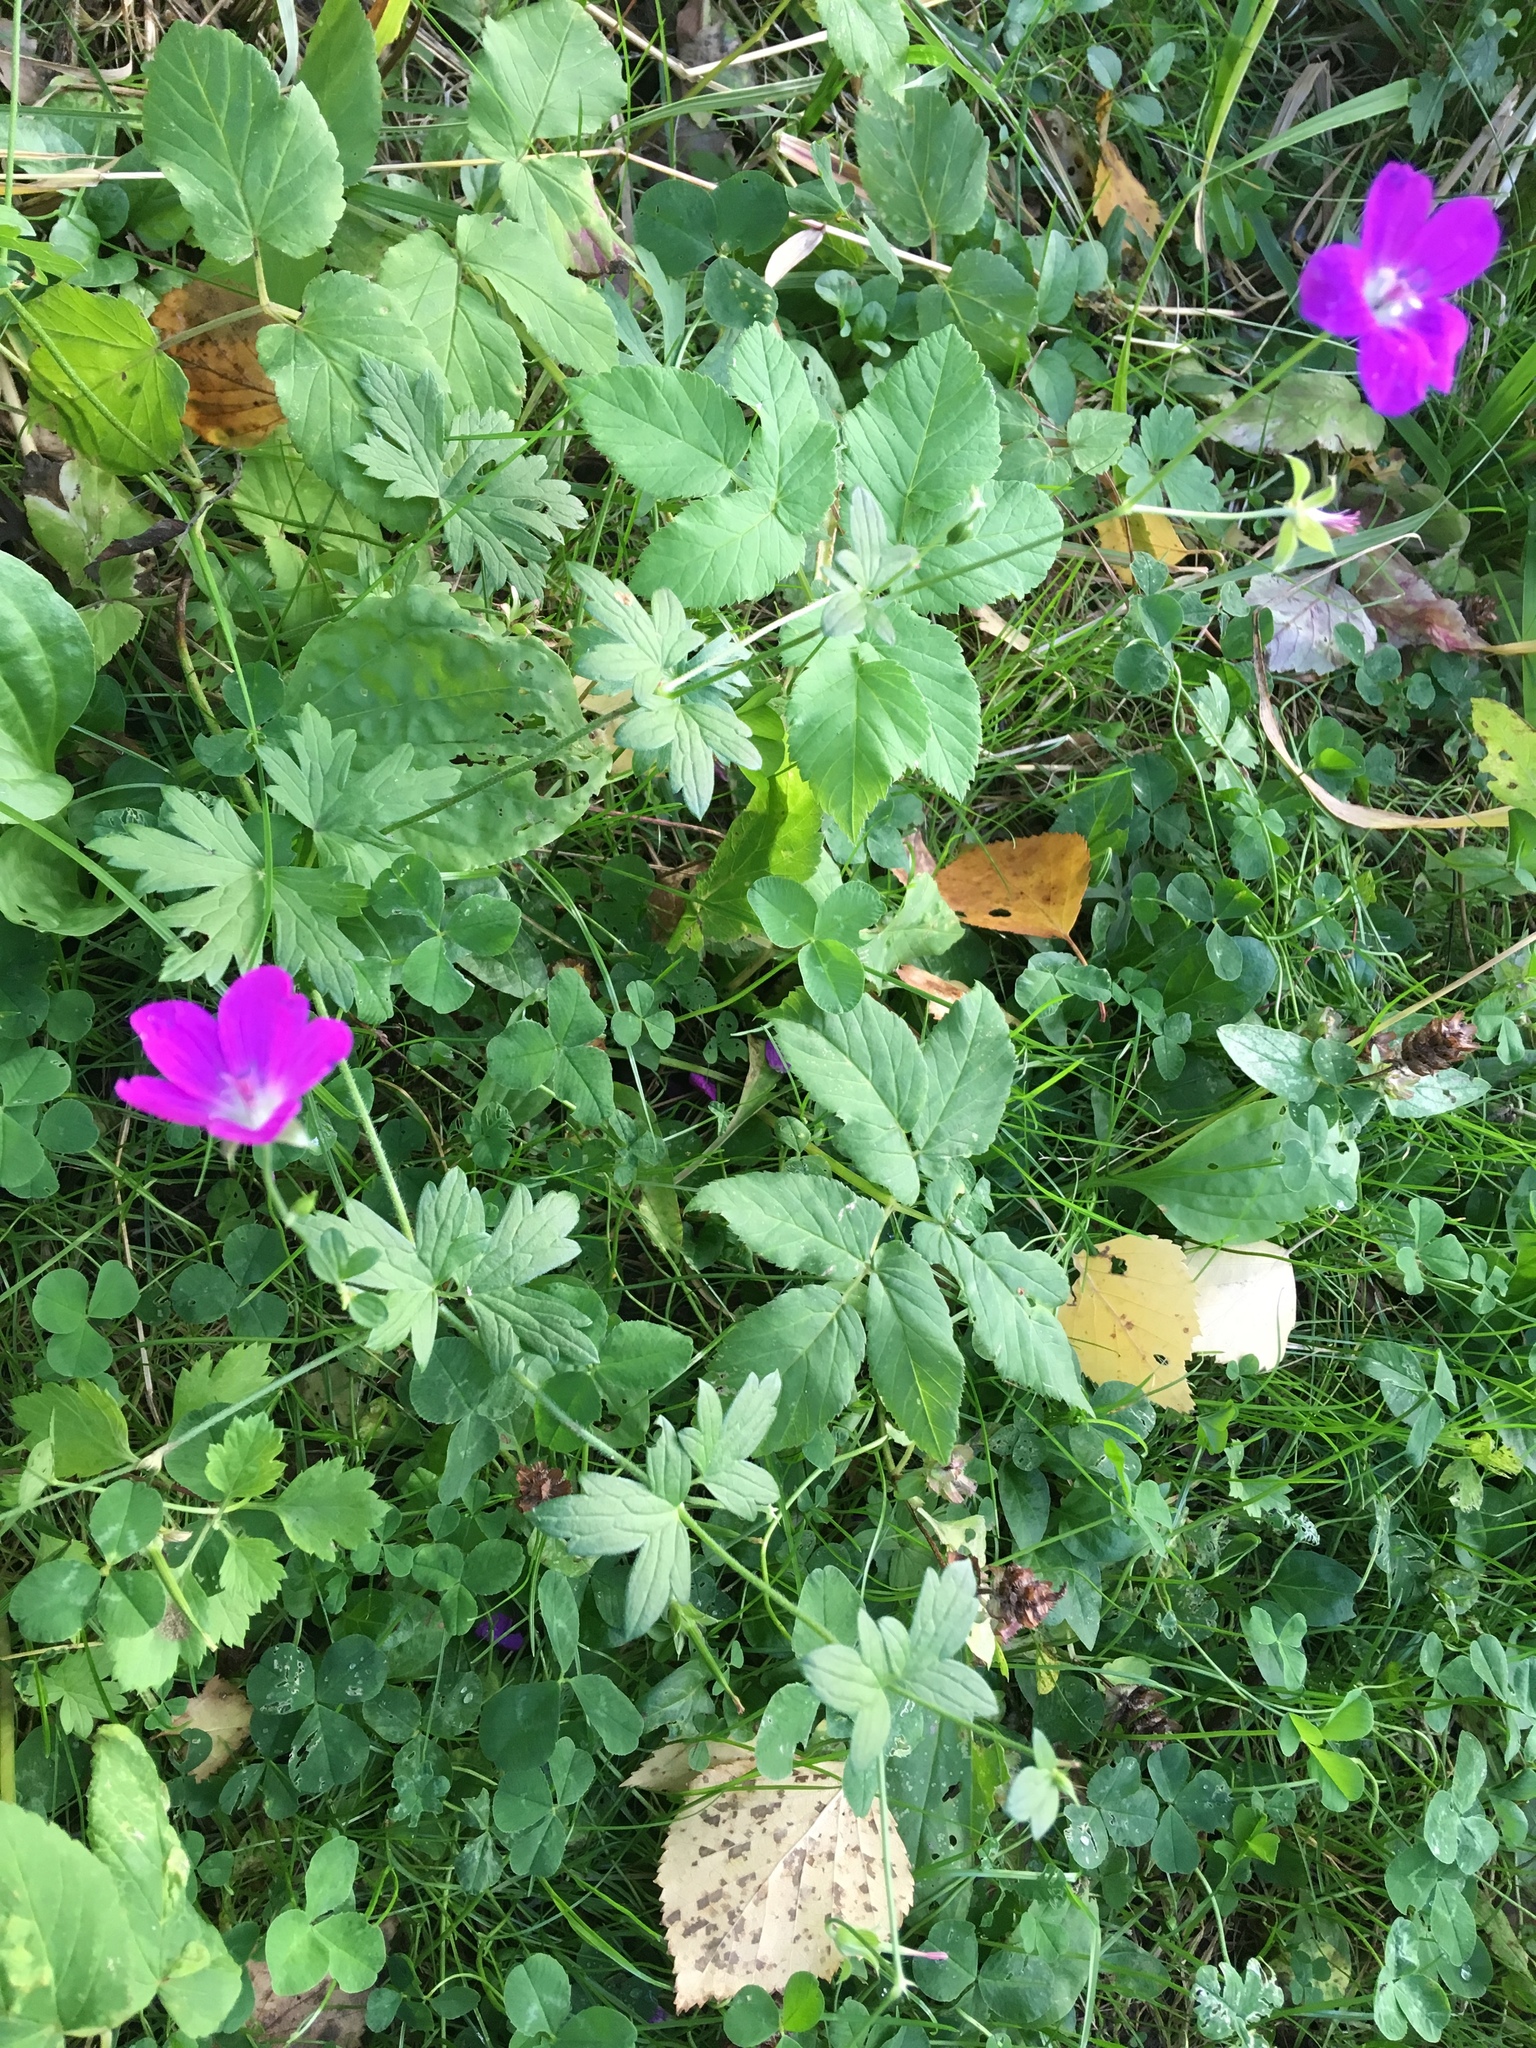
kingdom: Plantae
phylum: Tracheophyta
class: Magnoliopsida
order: Geraniales
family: Geraniaceae
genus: Geranium
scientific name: Geranium palustre
